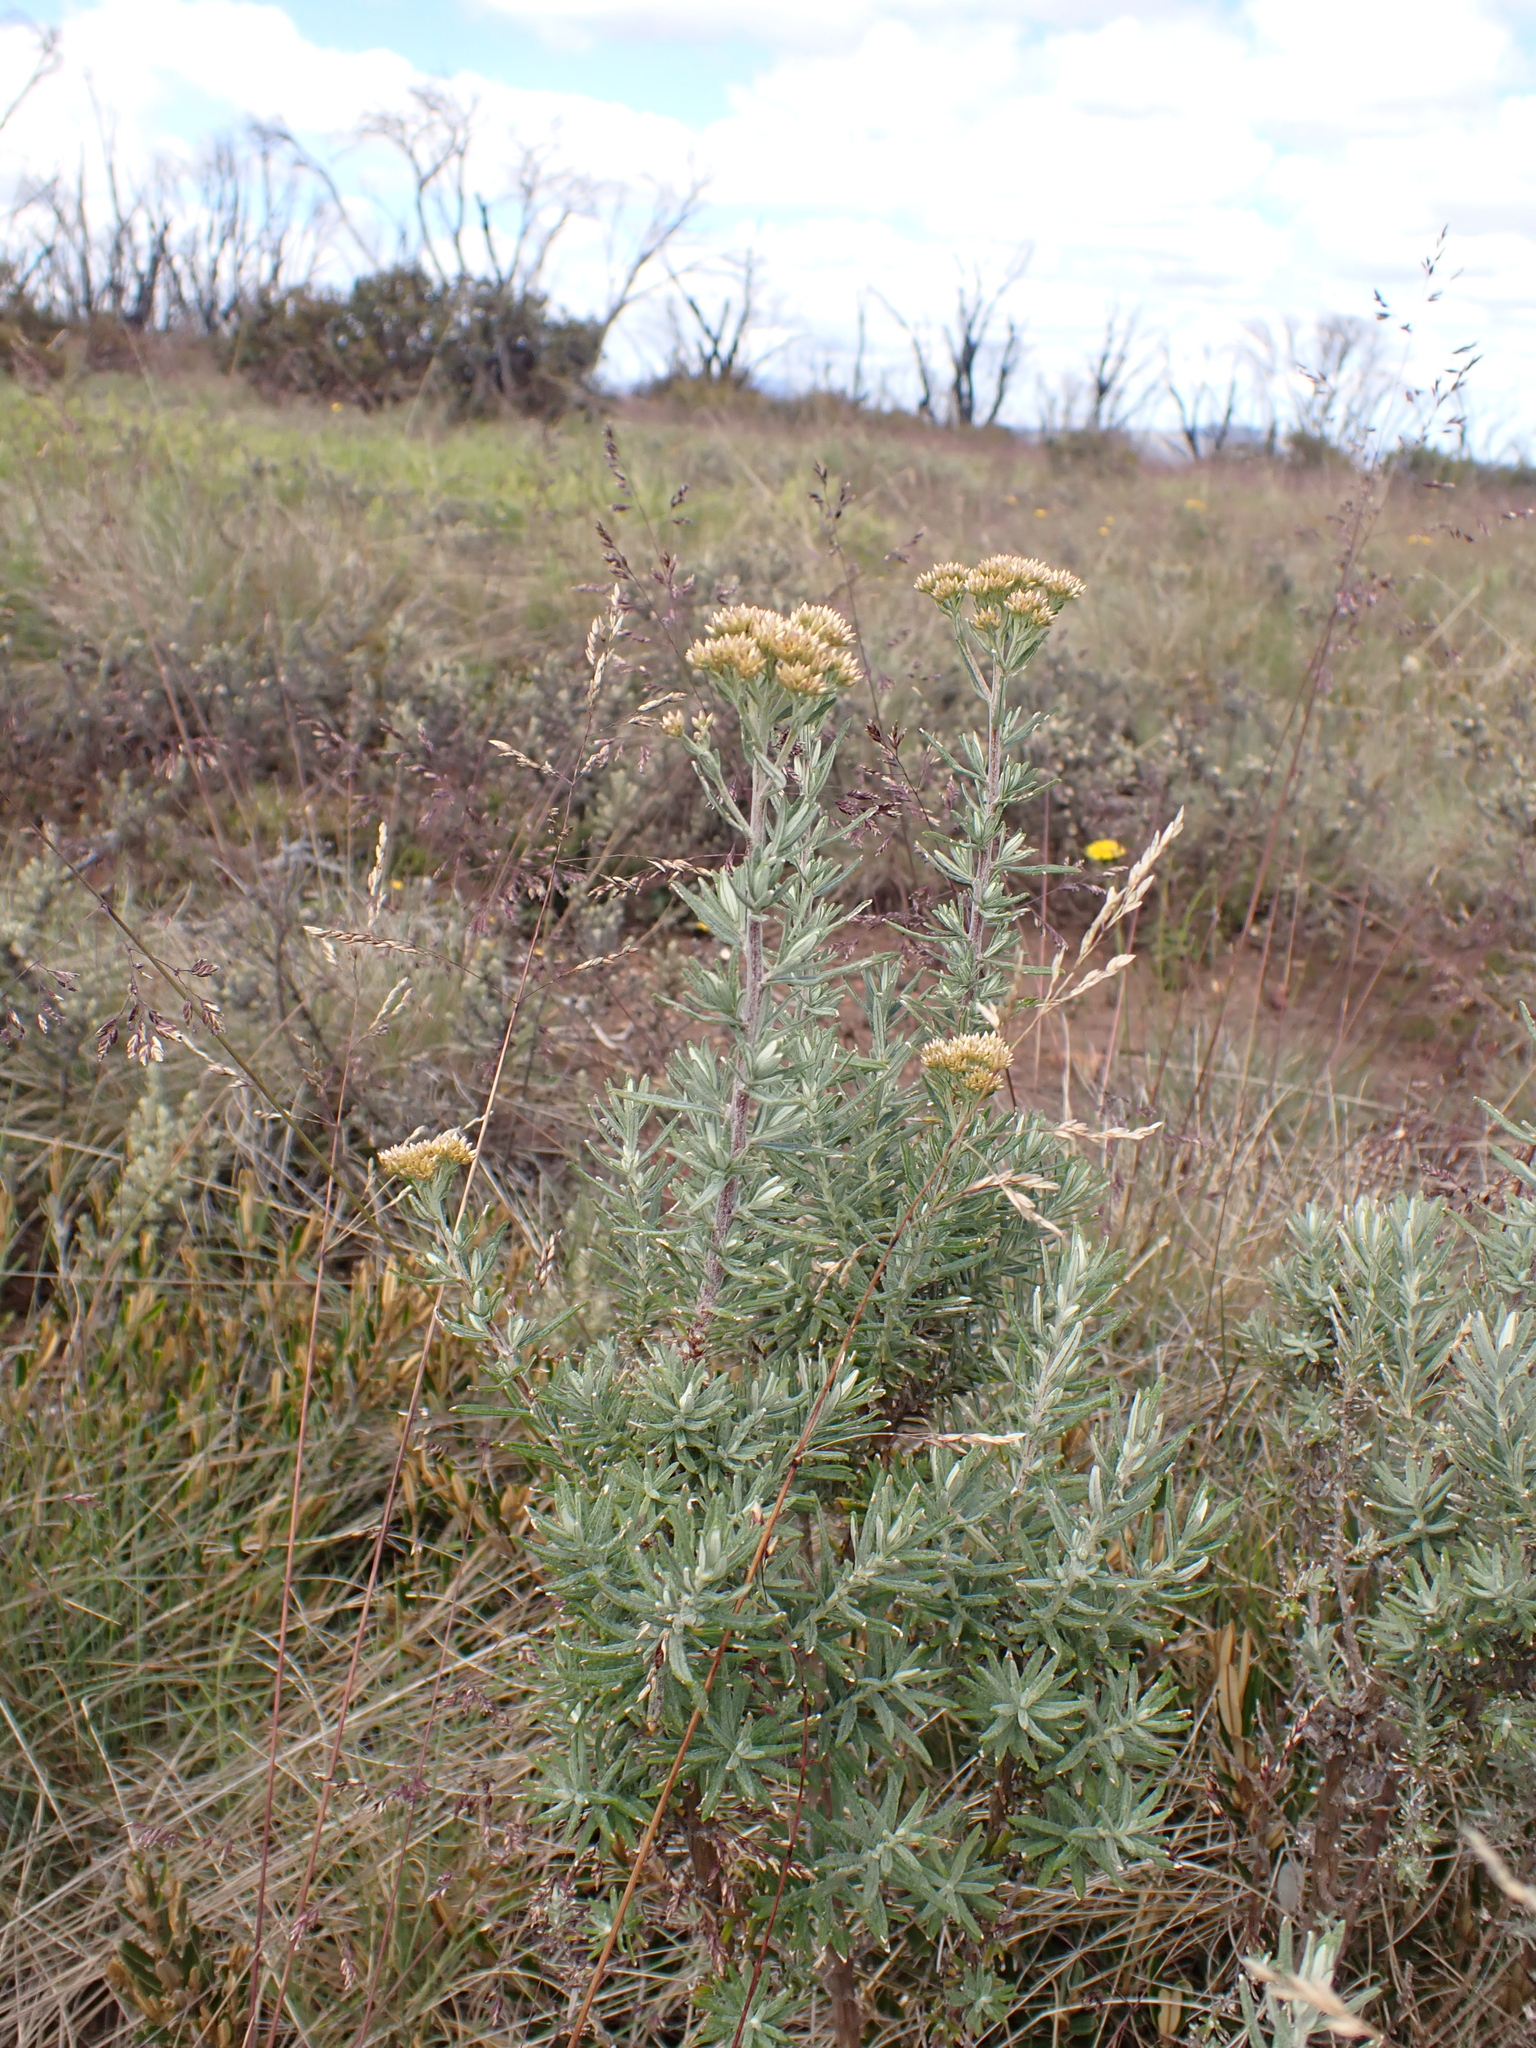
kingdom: Plantae
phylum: Tracheophyta
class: Magnoliopsida
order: Asterales
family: Asteraceae
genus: Cassinia
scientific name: Cassinia monticola
